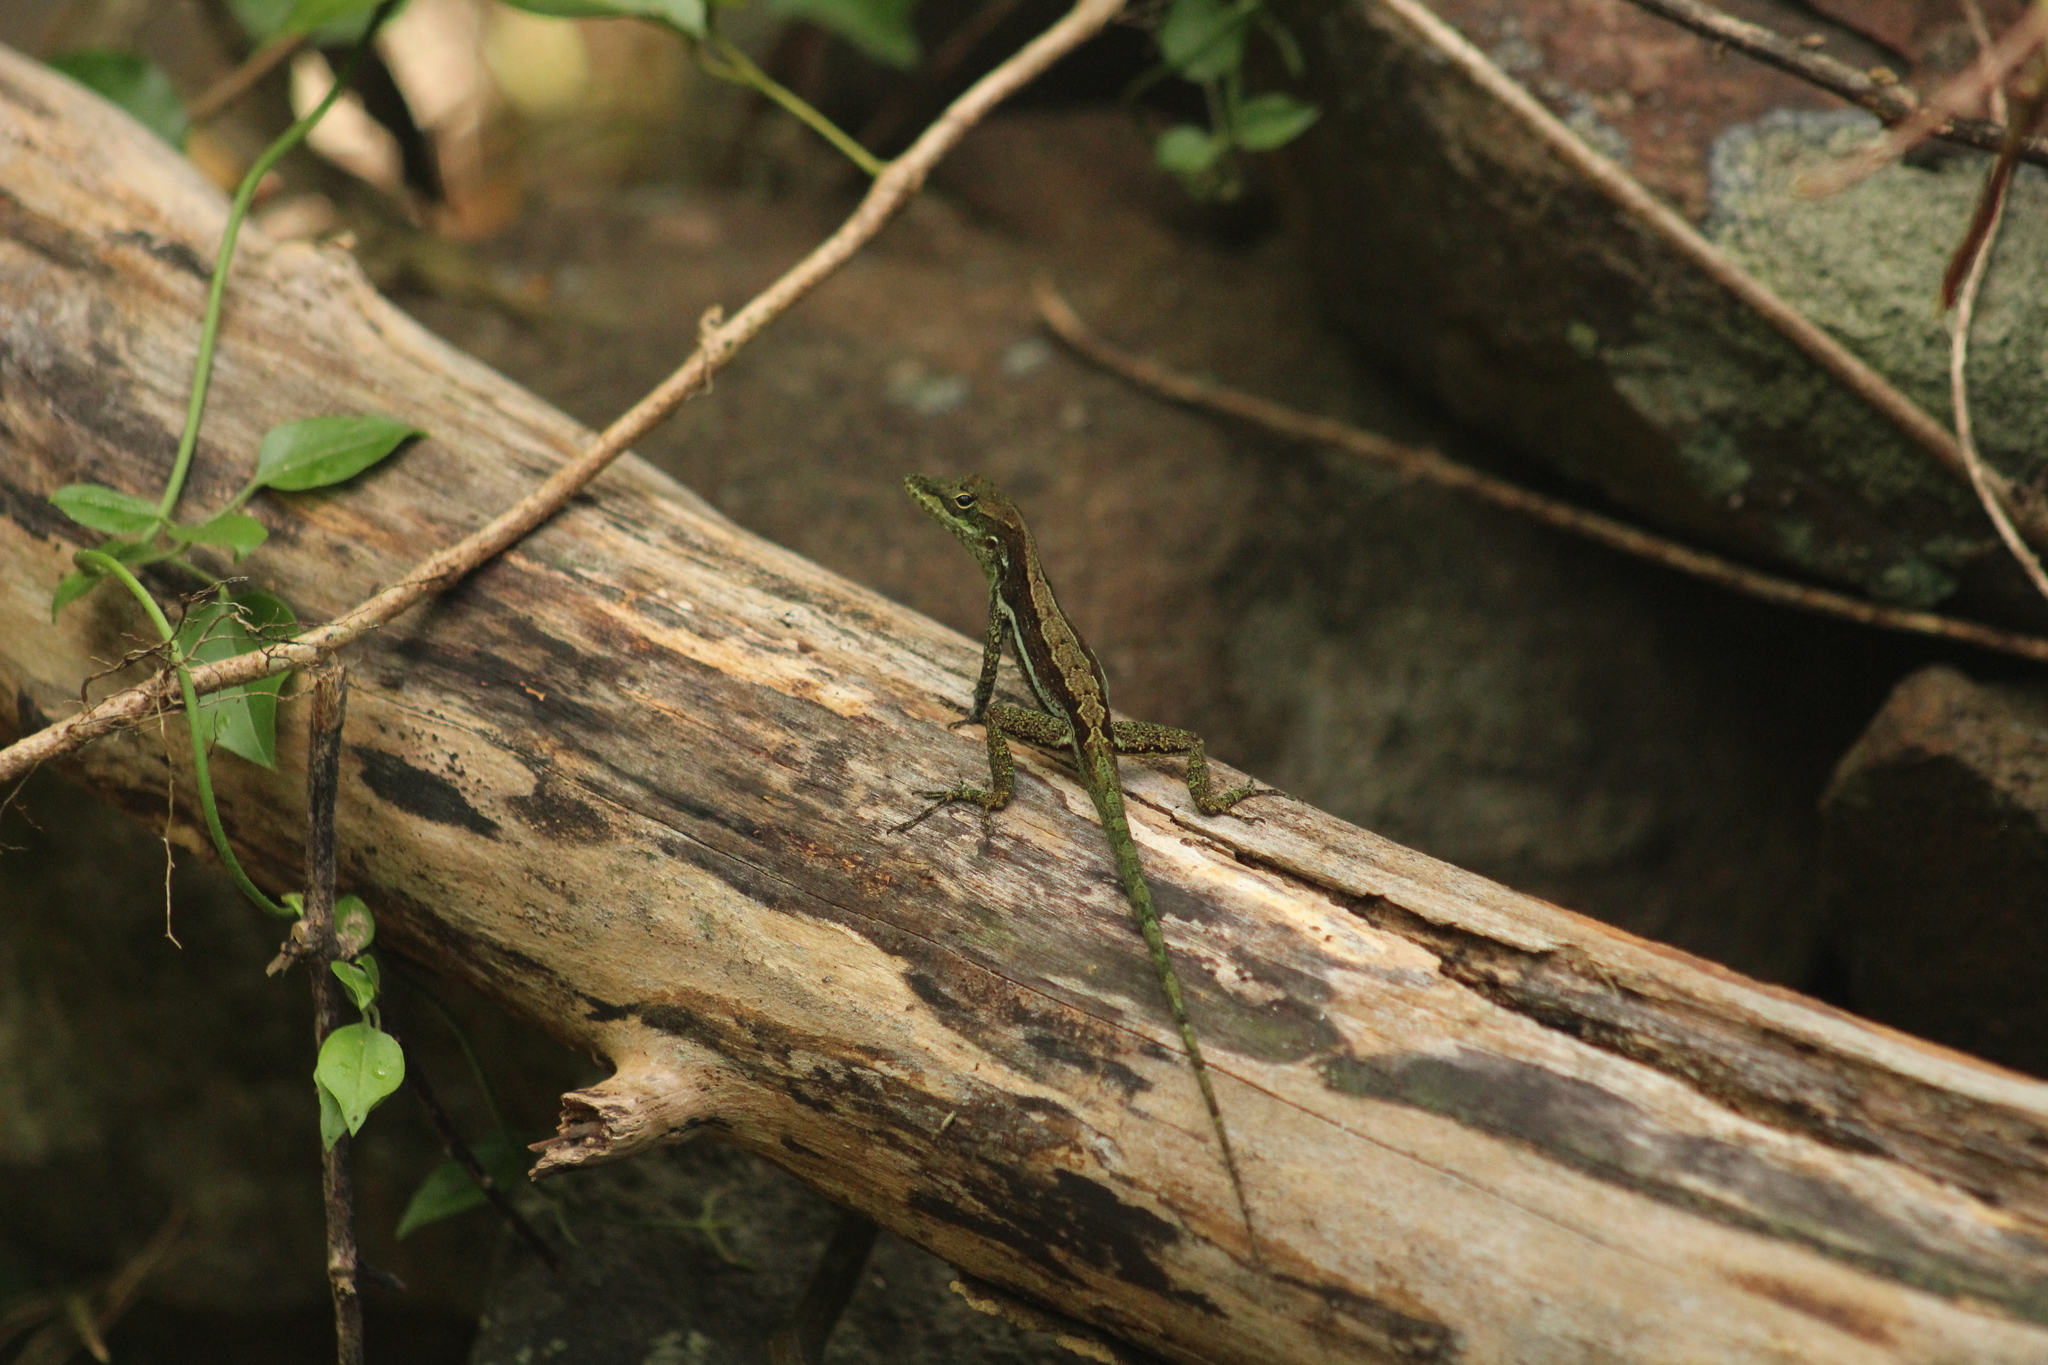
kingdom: Animalia
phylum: Chordata
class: Squamata
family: Dactyloidae
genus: Anolis
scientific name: Anolis gingivinus
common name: Anguilla anole
